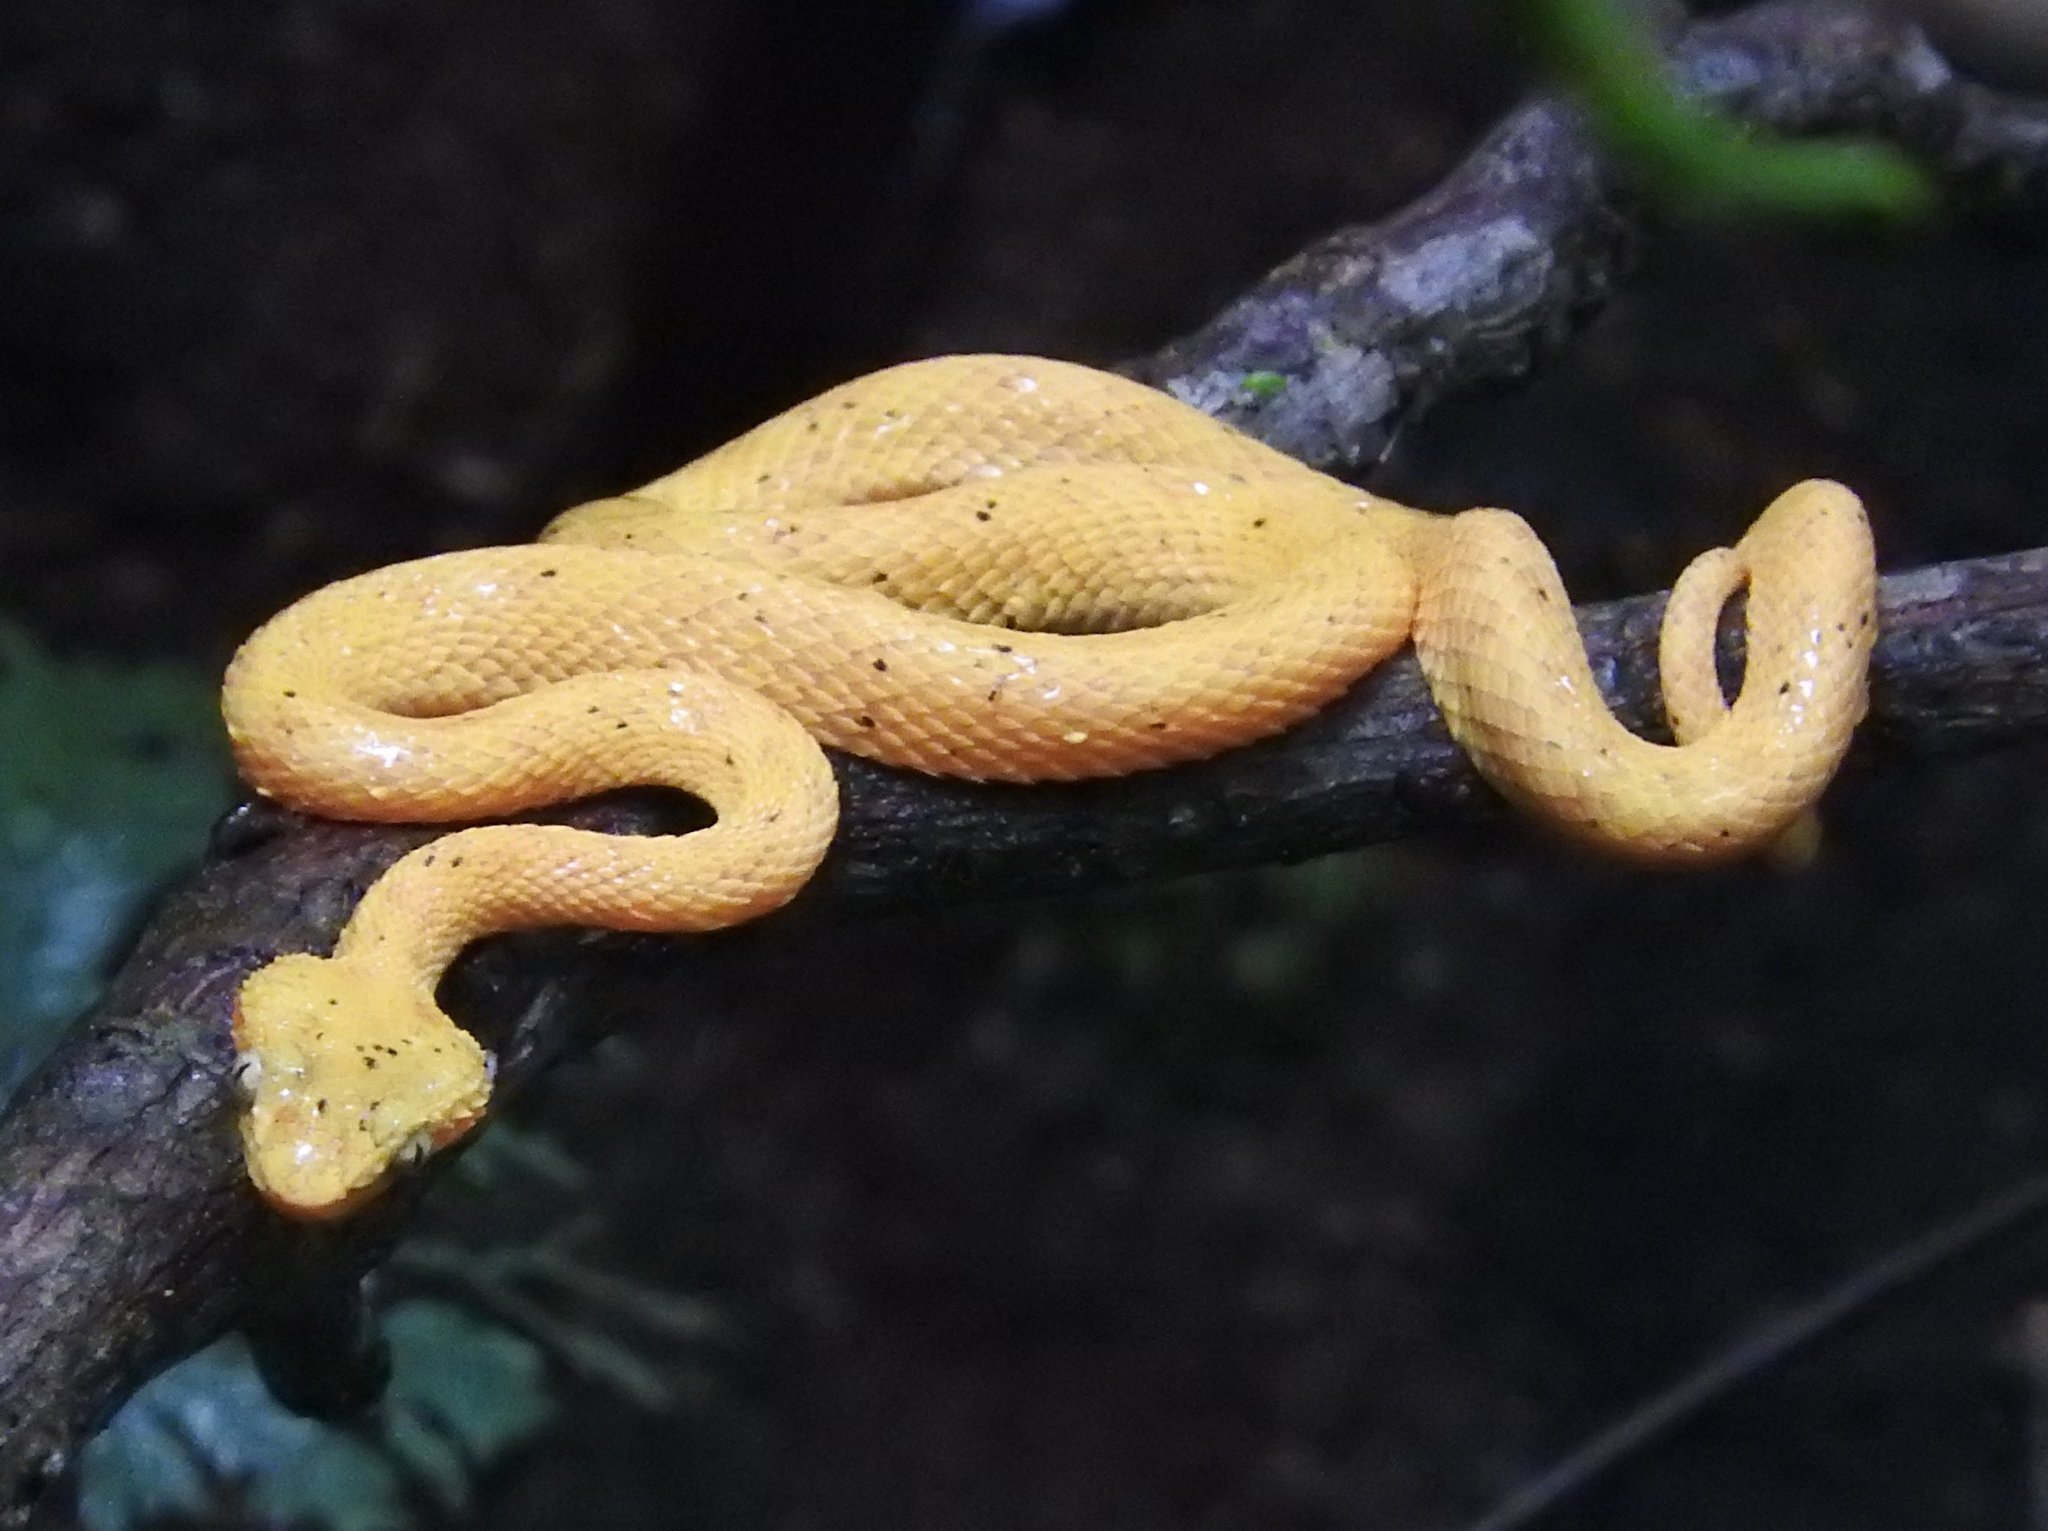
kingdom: Animalia
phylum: Chordata
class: Squamata
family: Viperidae
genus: Bothriechis
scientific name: Bothriechis schlegelii
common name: Eyelash viper
